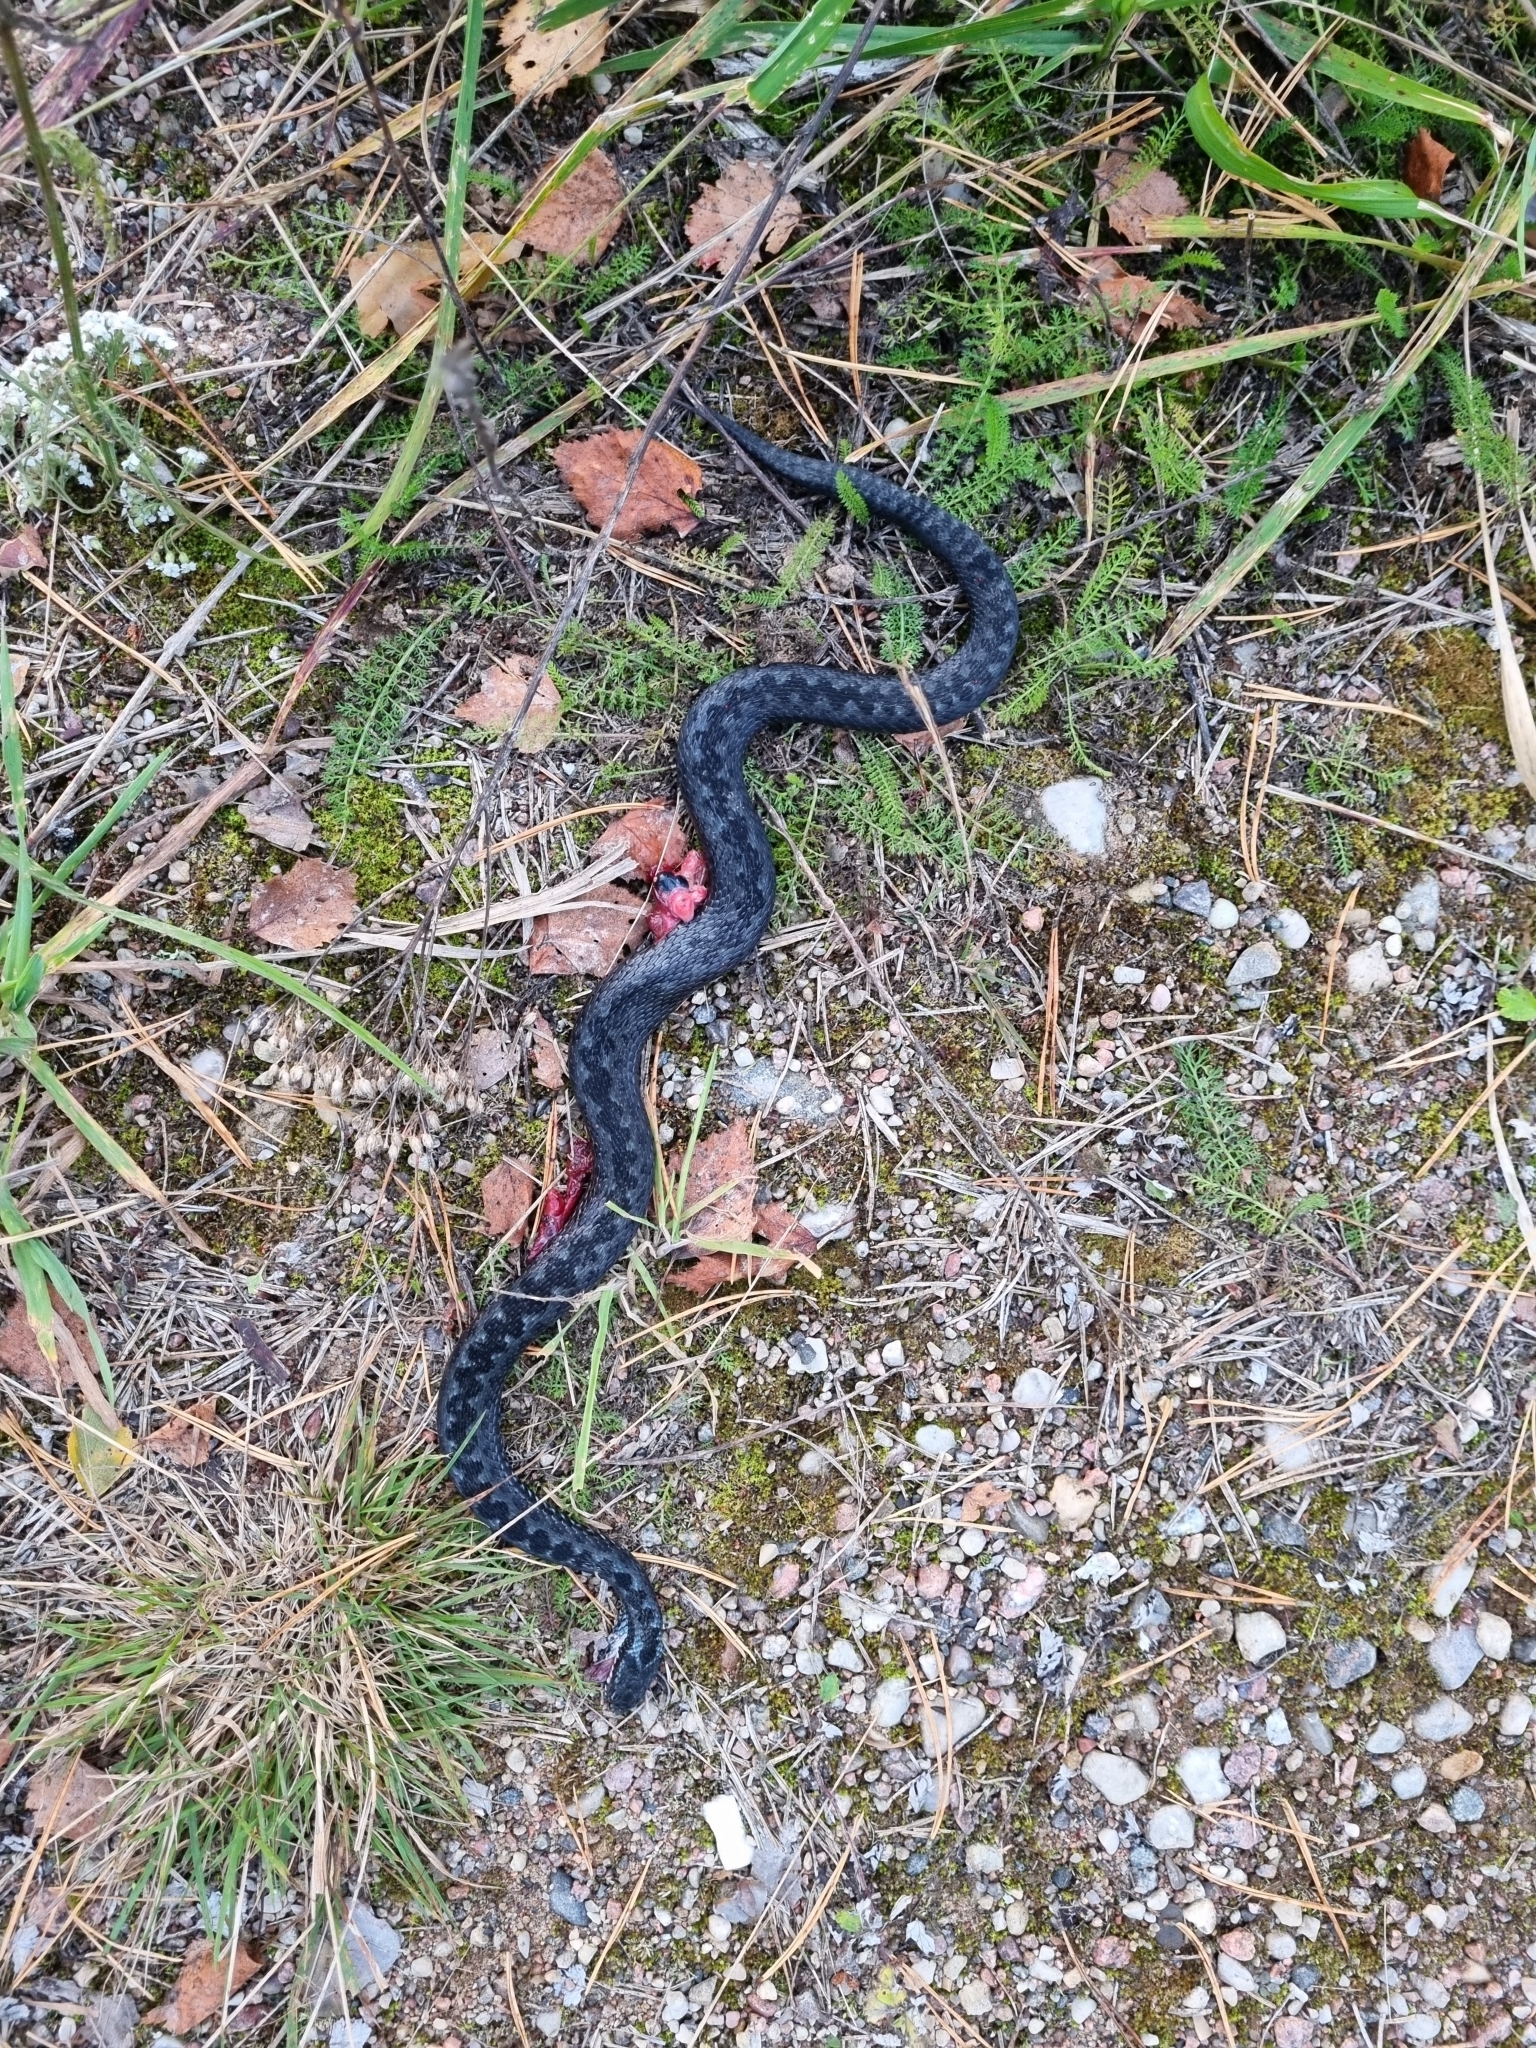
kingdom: Animalia
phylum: Chordata
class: Squamata
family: Viperidae
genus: Vipera
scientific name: Vipera berus
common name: Adder
